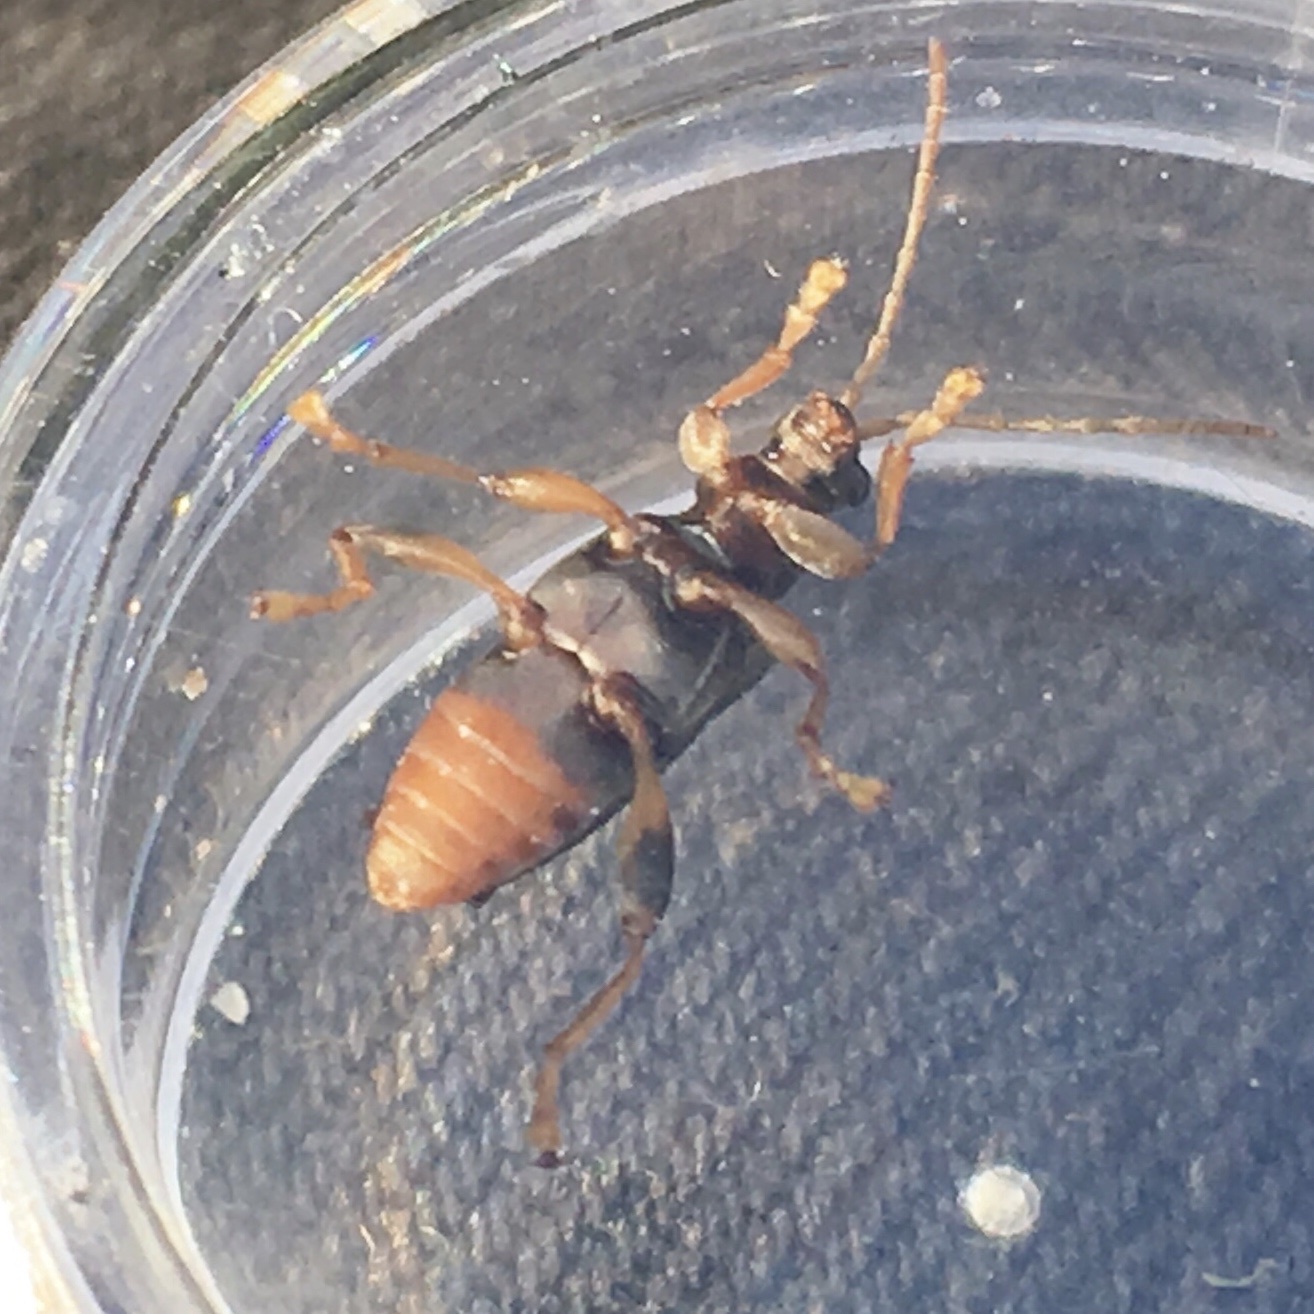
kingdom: Animalia
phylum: Arthropoda
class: Insecta
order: Coleoptera
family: Chrysomelidae
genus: Donacia
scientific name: Donacia piscatrix
